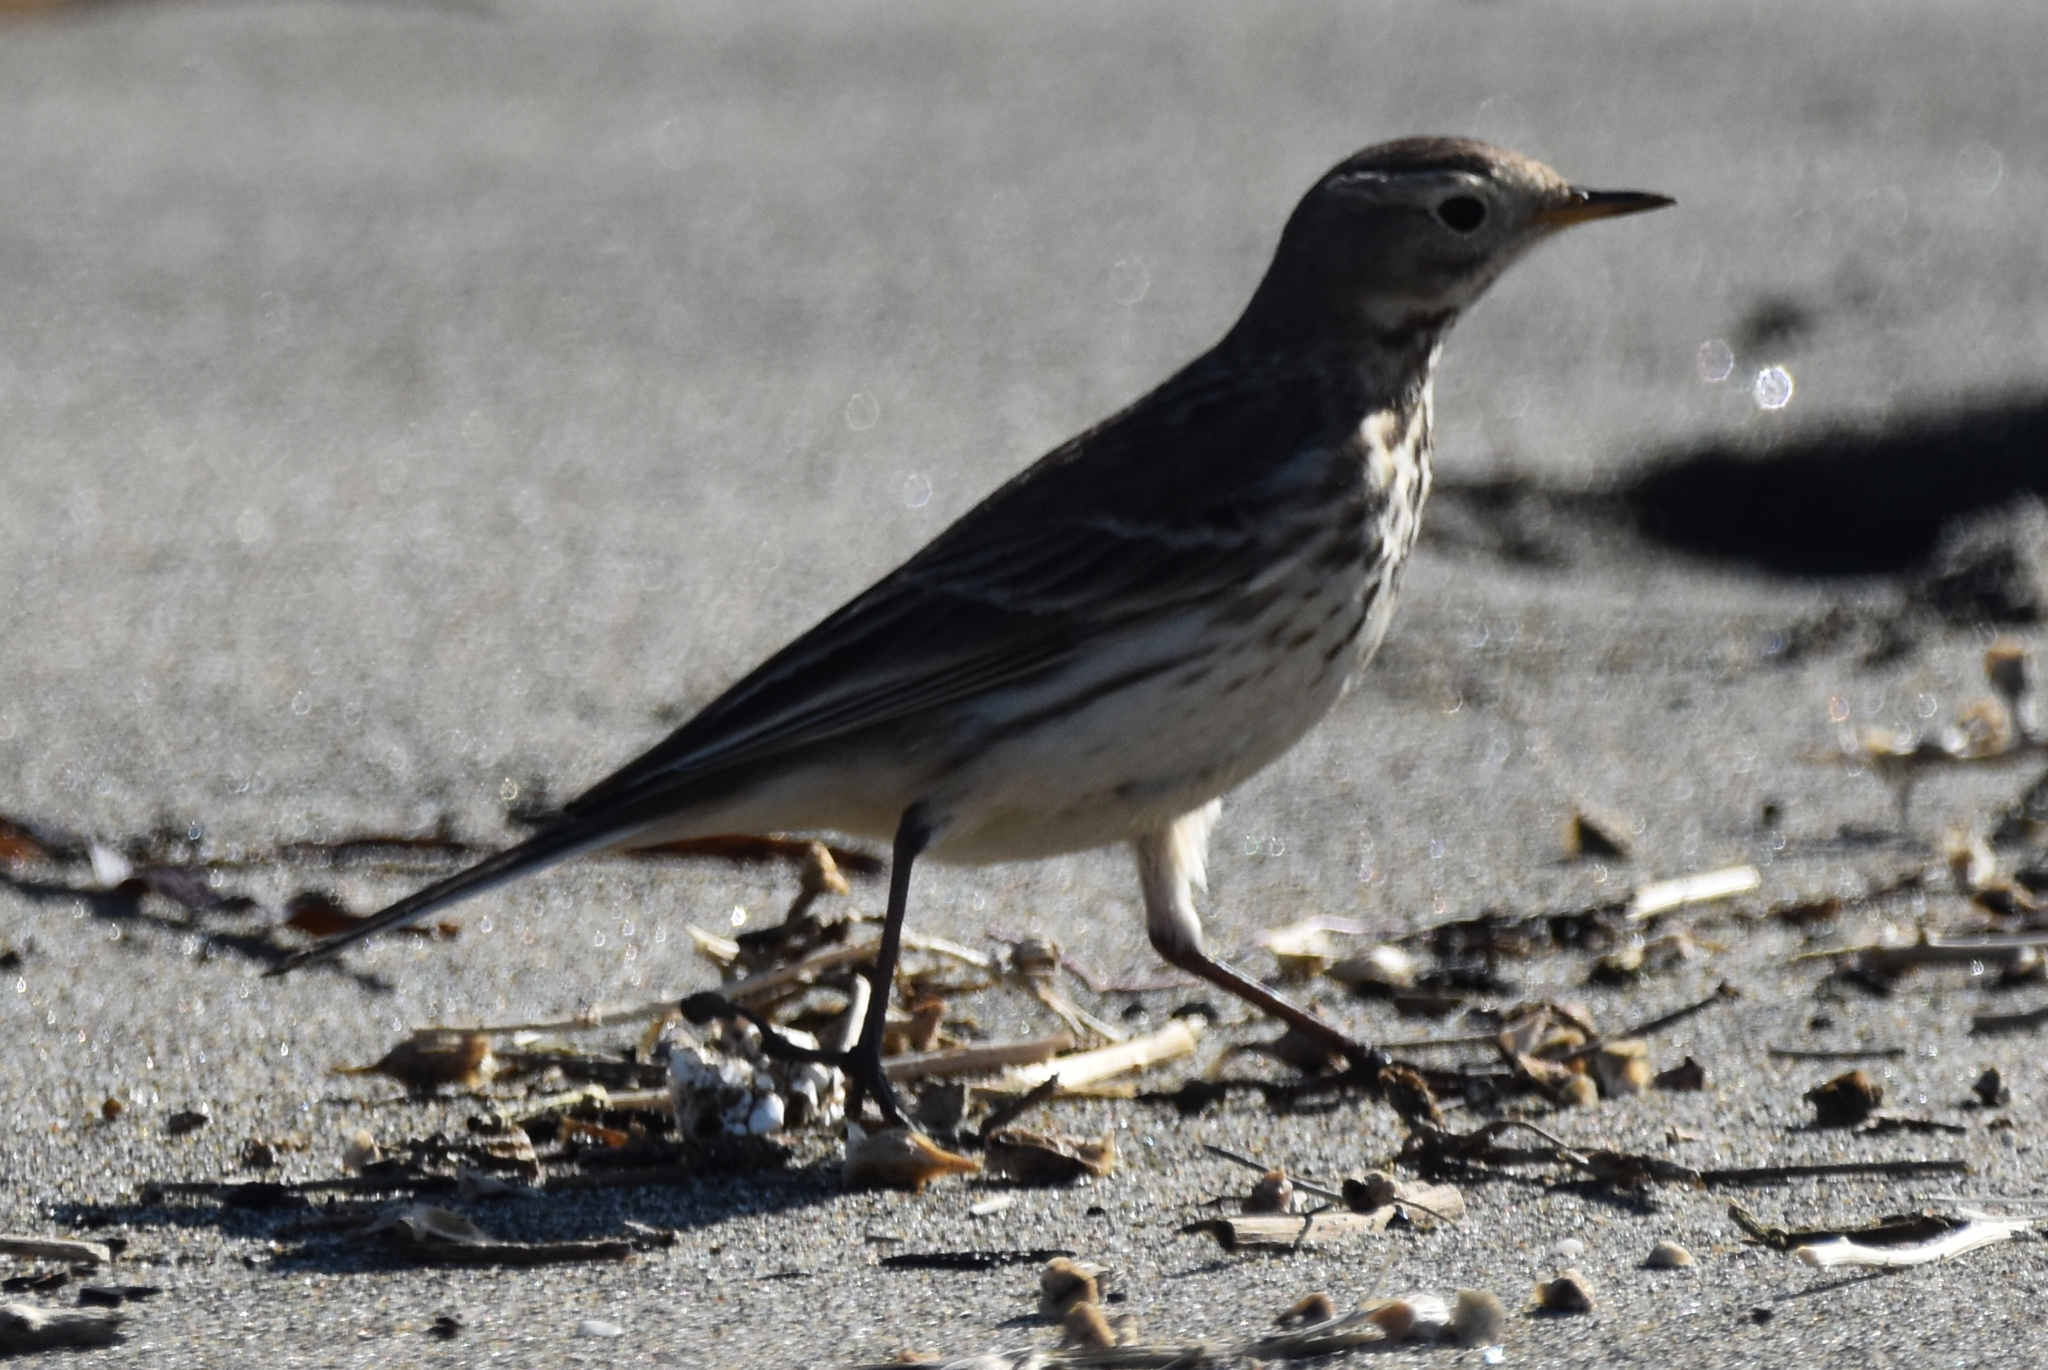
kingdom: Animalia
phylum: Chordata
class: Aves
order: Passeriformes
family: Motacillidae
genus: Anthus
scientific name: Anthus rubescens
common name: Buff-bellied pipit
